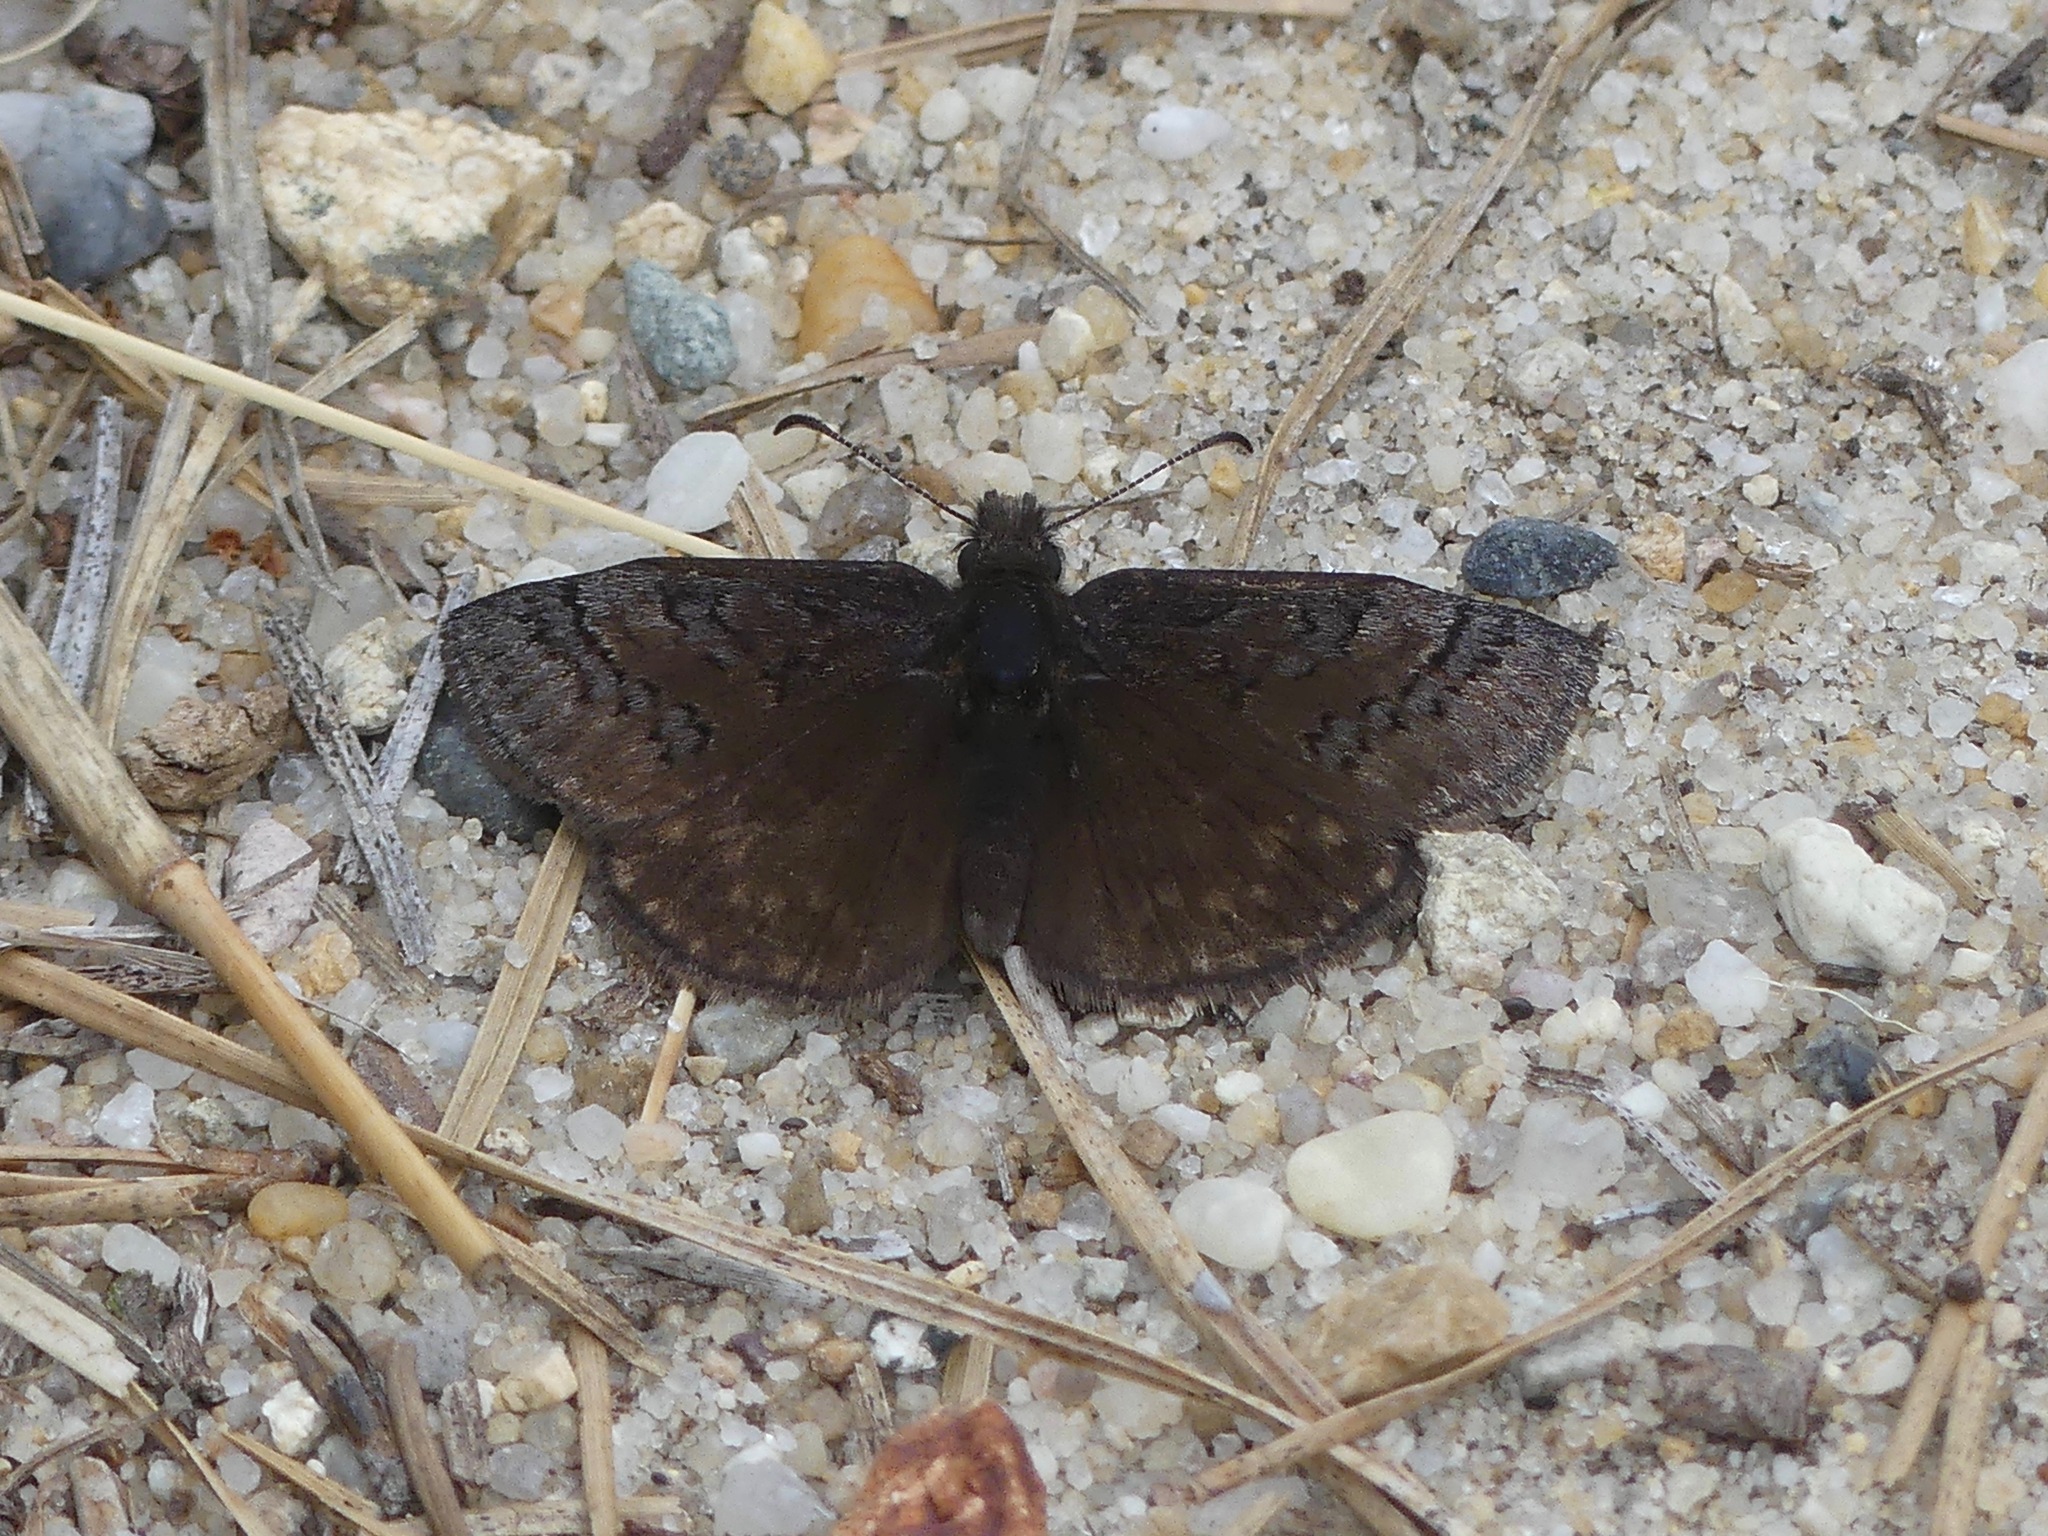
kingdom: Animalia
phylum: Arthropoda
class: Insecta
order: Lepidoptera
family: Hesperiidae
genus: Erynnis
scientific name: Erynnis brizo
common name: Sleepy duskywing
